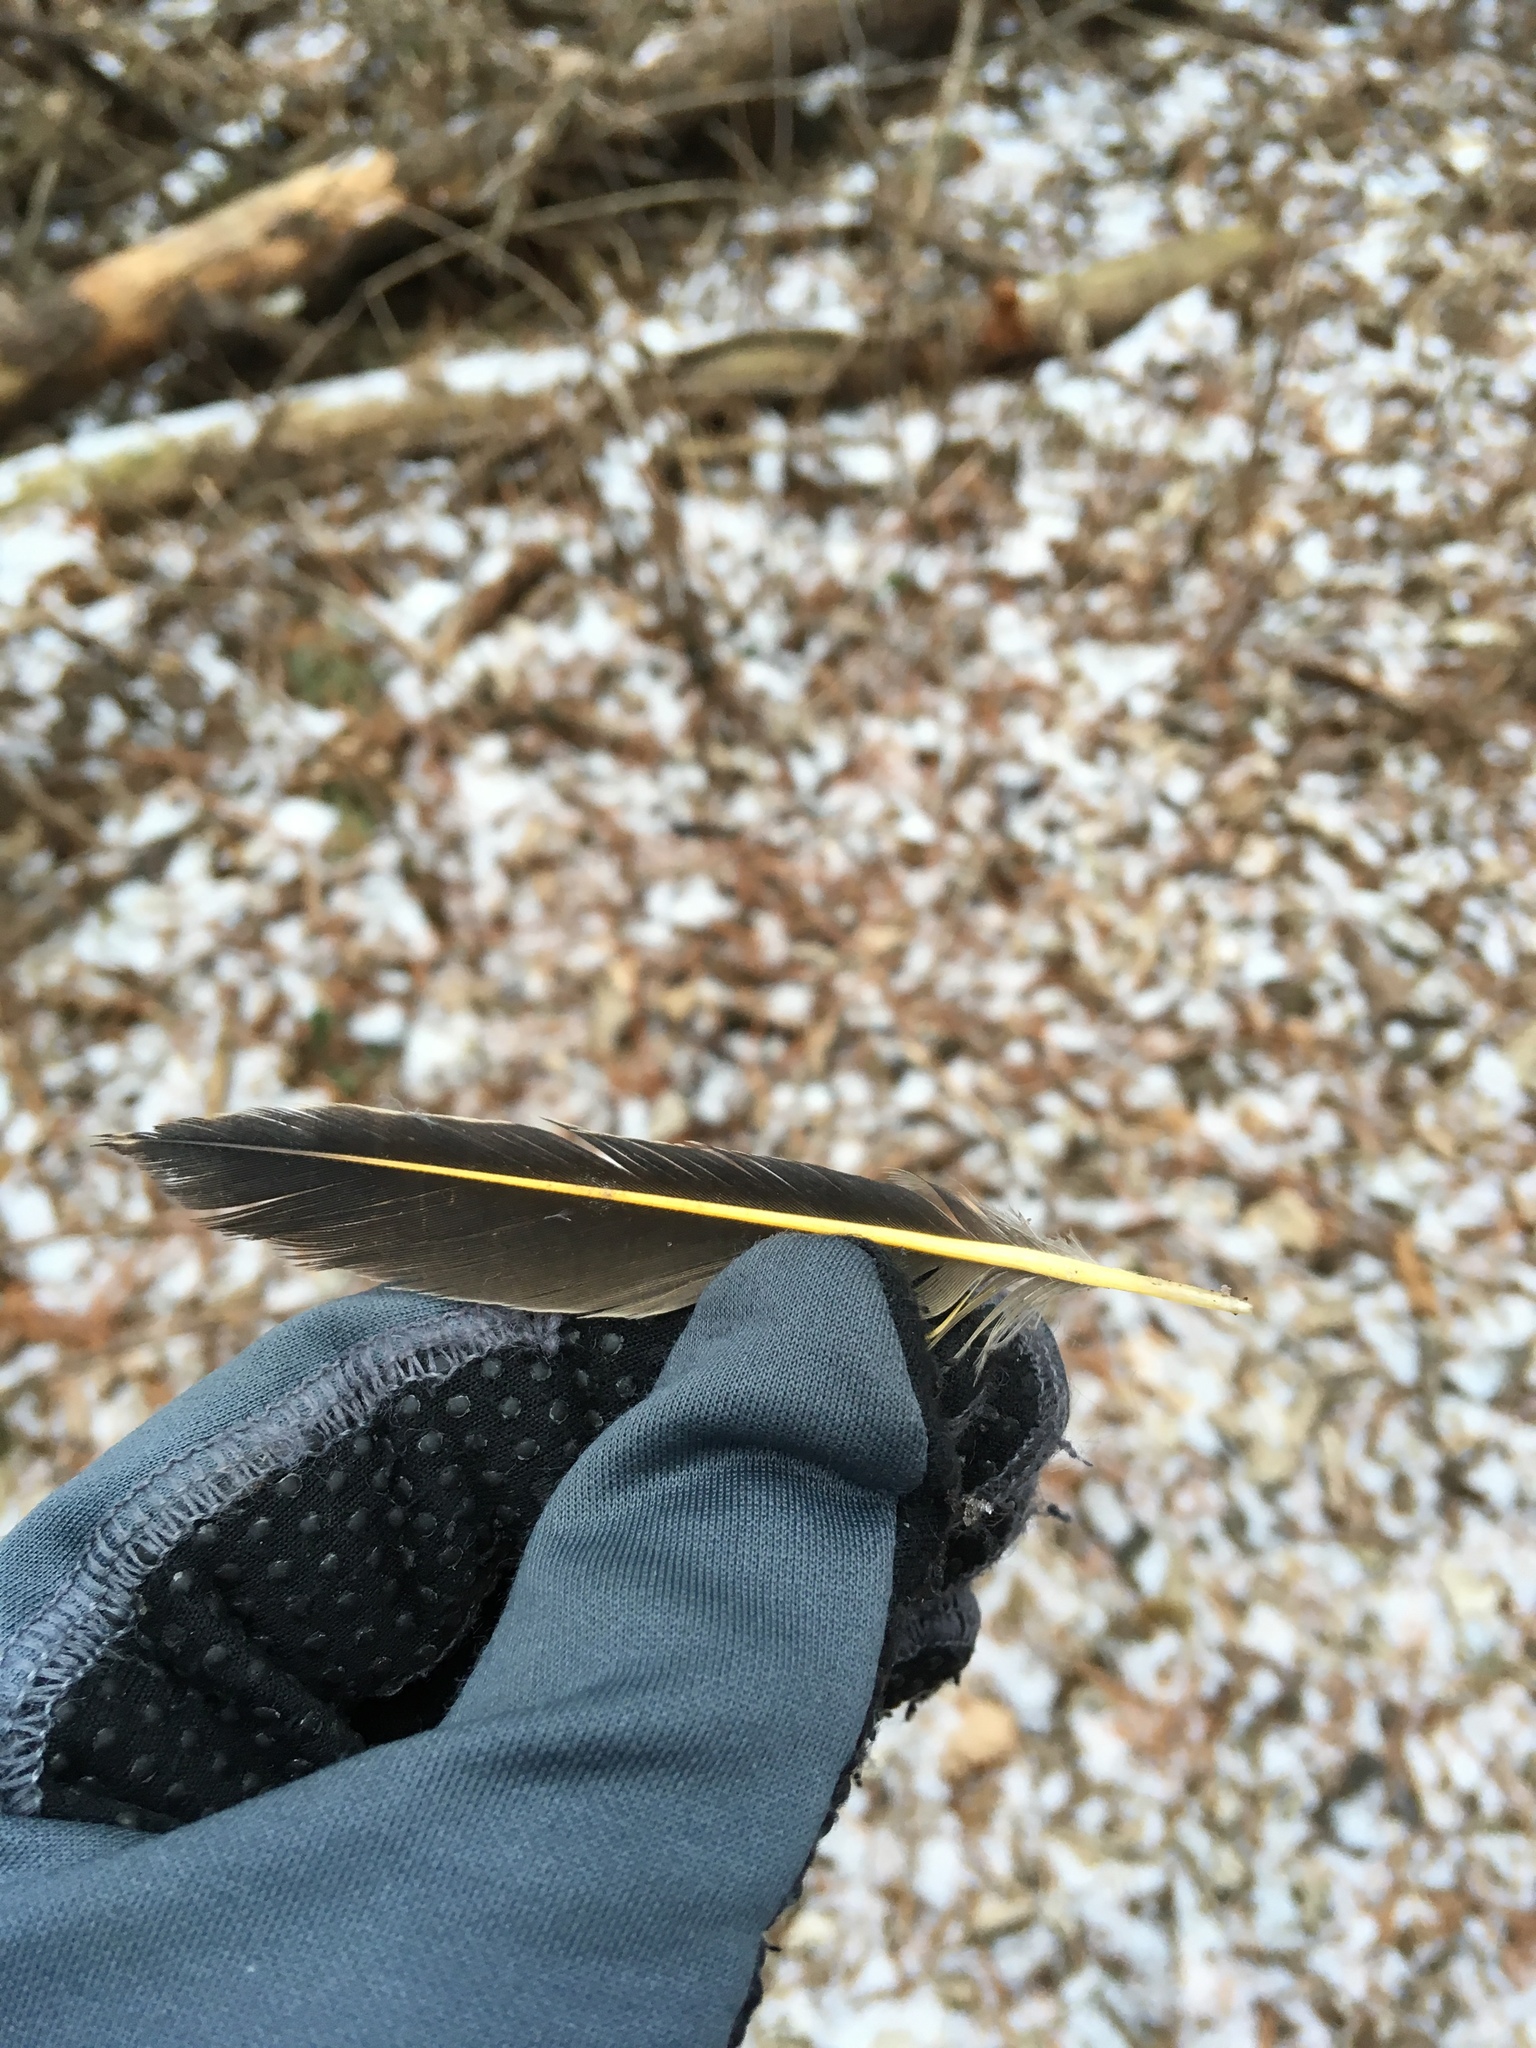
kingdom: Animalia
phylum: Chordata
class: Aves
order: Piciformes
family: Picidae
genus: Colaptes
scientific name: Colaptes auratus
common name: Northern flicker
